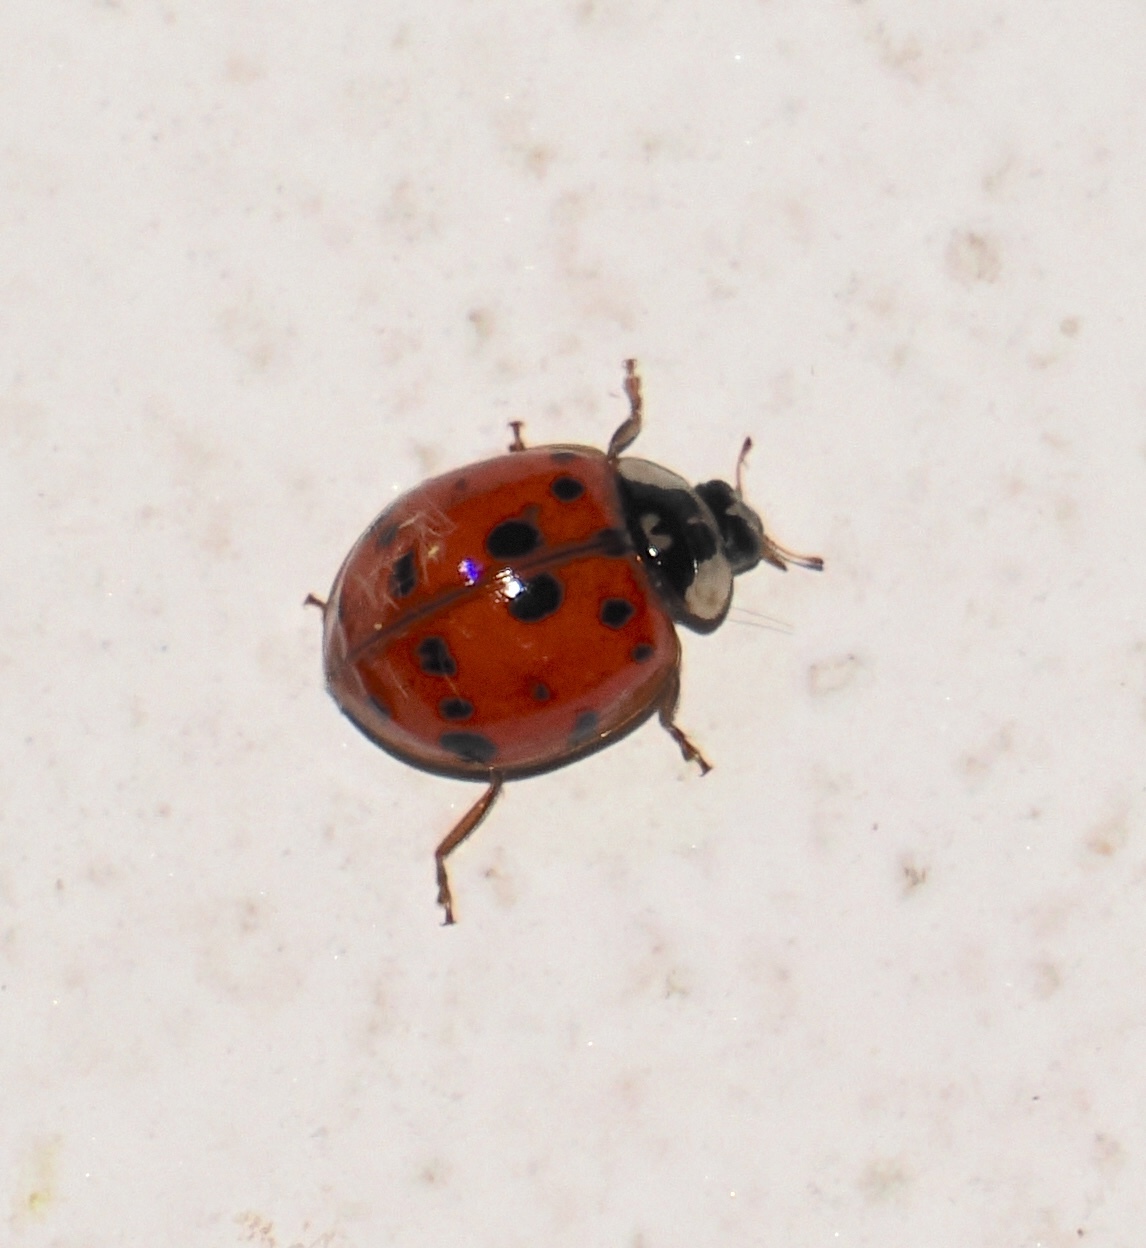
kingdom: Animalia
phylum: Arthropoda
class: Insecta
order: Coleoptera
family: Coccinellidae
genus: Harmonia
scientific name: Harmonia axyridis
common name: Harlequin ladybird
